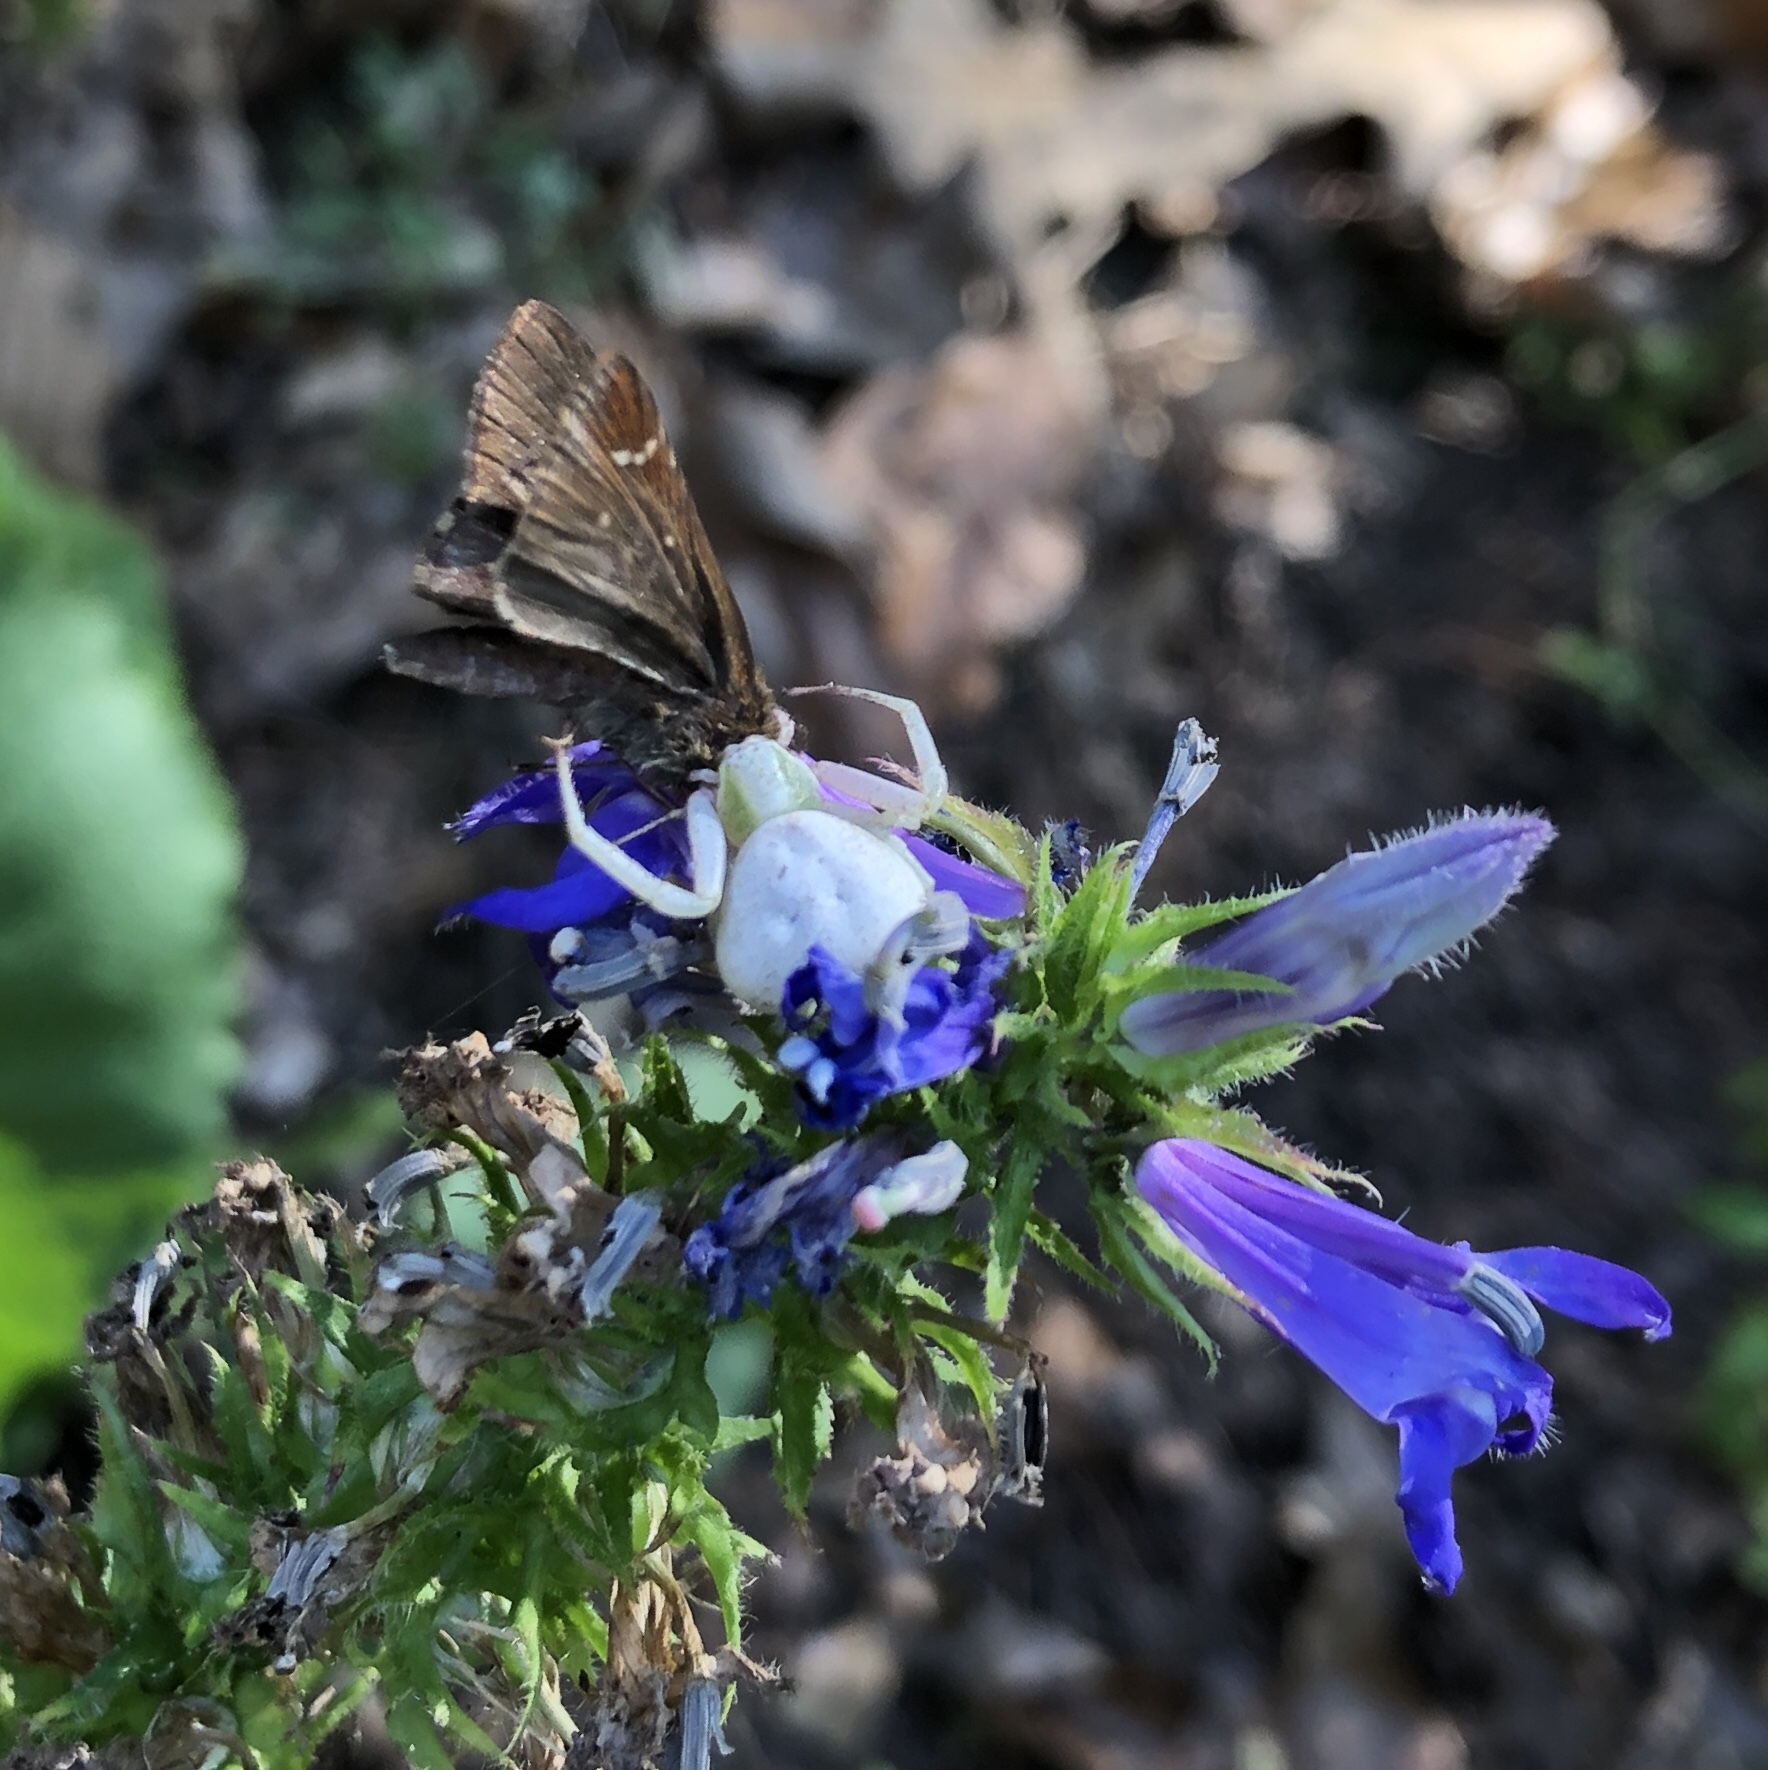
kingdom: Animalia
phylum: Arthropoda
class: Arachnida
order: Araneae
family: Thomisidae
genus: Misumenoides
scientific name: Misumenoides formosipes
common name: White-banded crab spider
